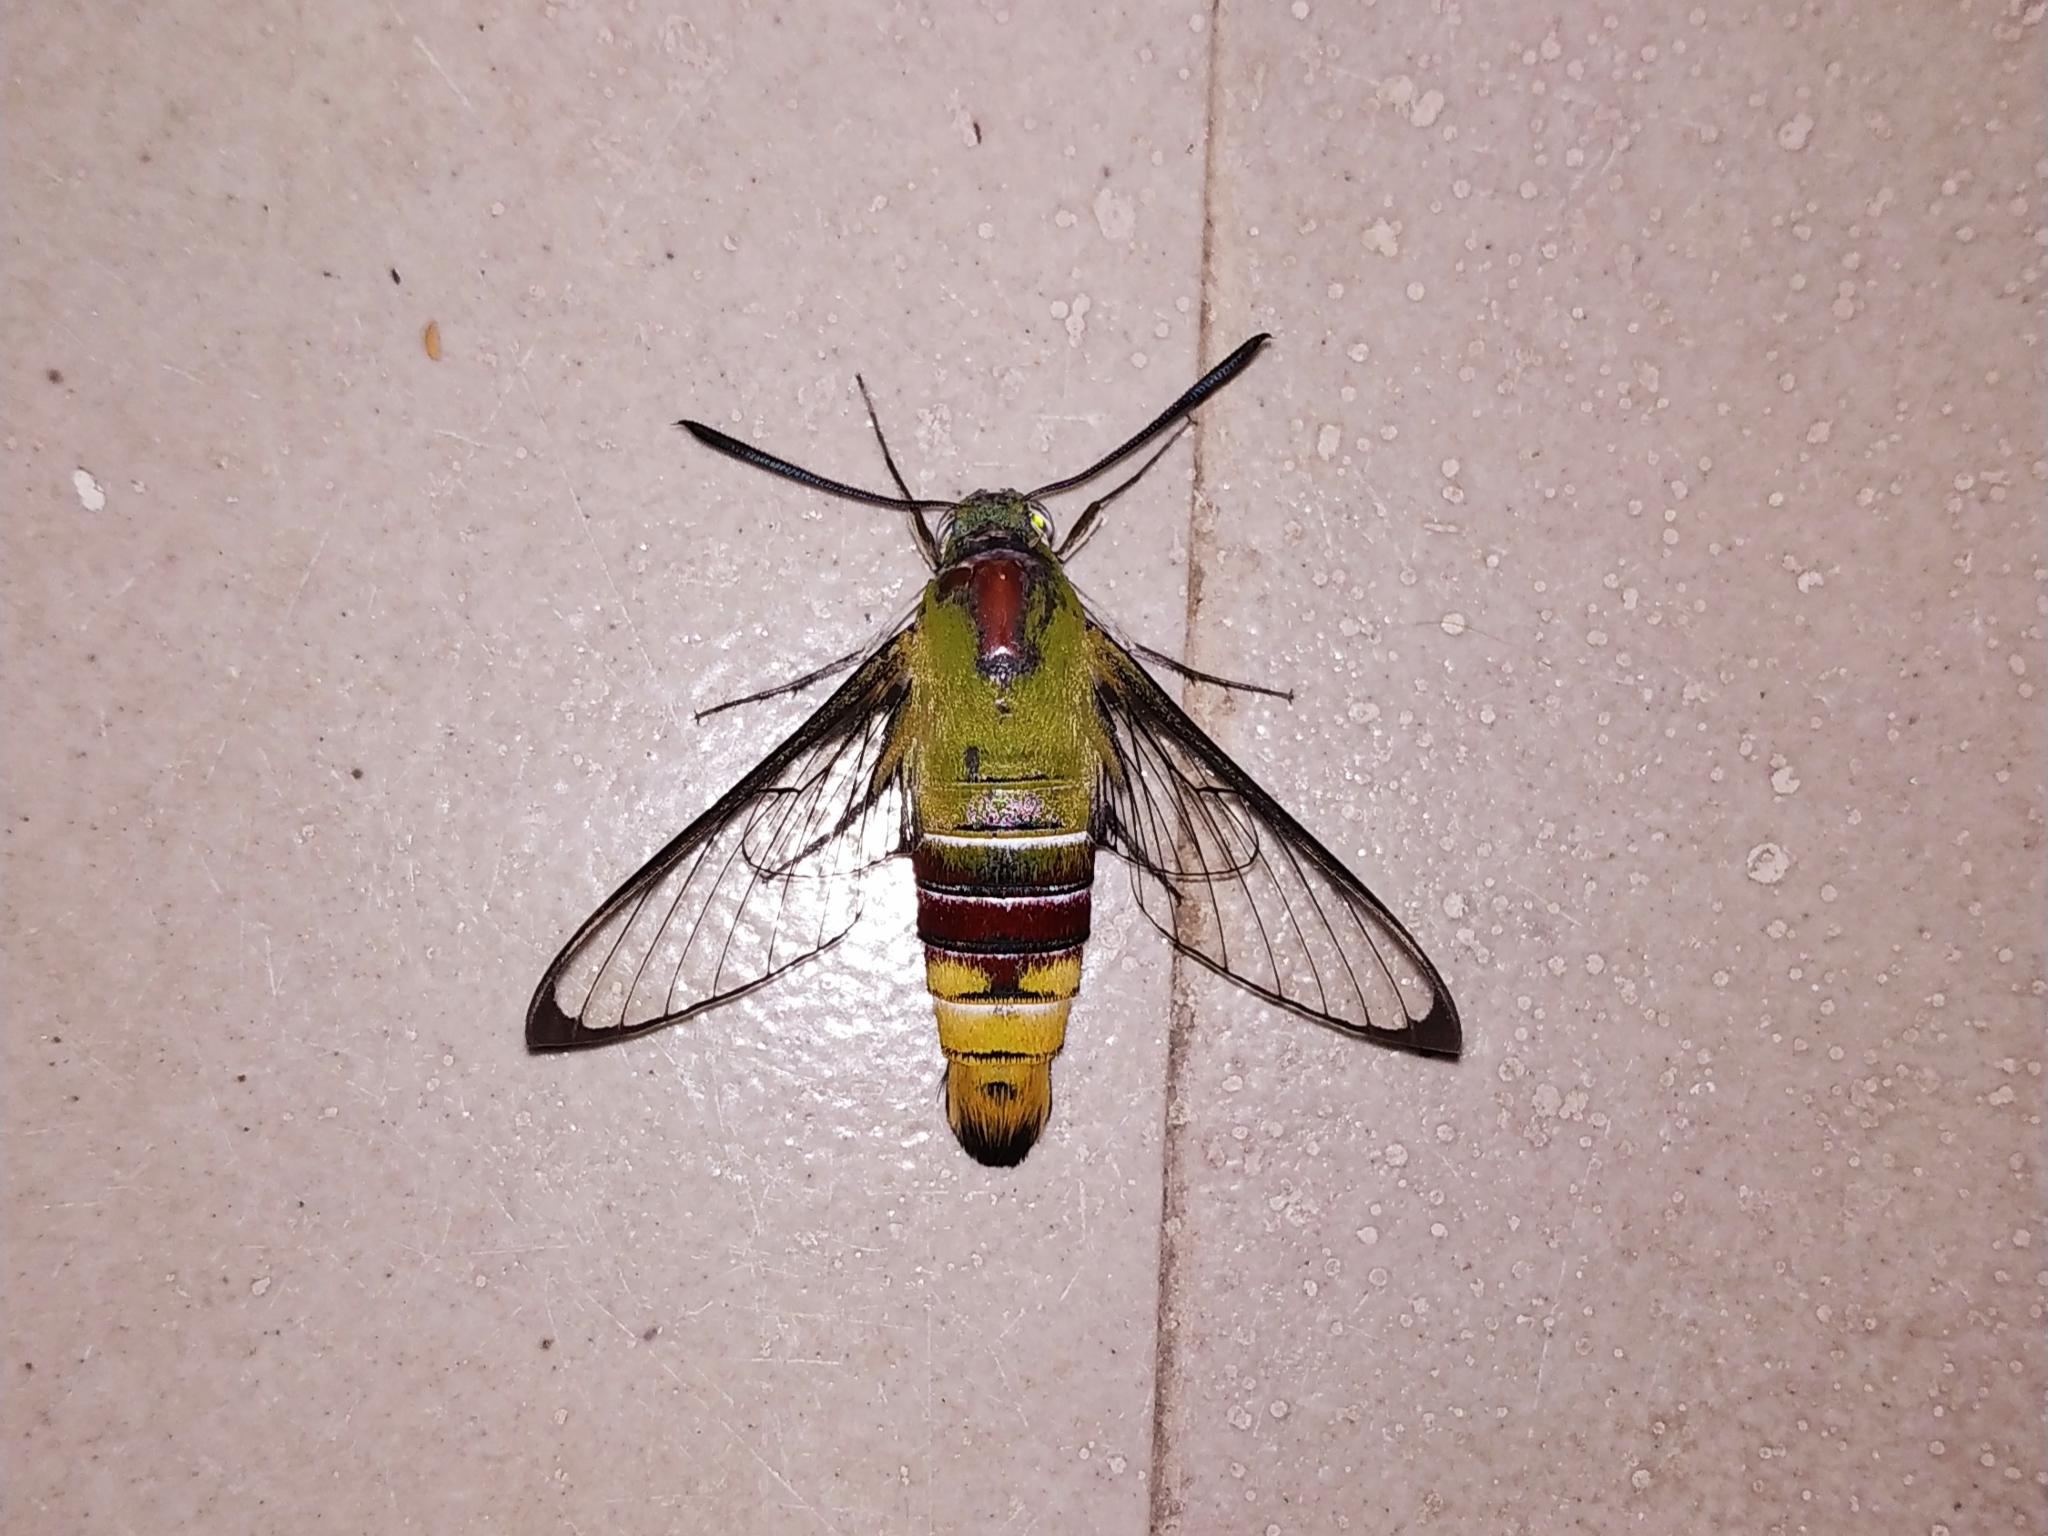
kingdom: Animalia
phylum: Arthropoda
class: Insecta
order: Lepidoptera
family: Sphingidae
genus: Cephonodes
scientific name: Cephonodes hylas
